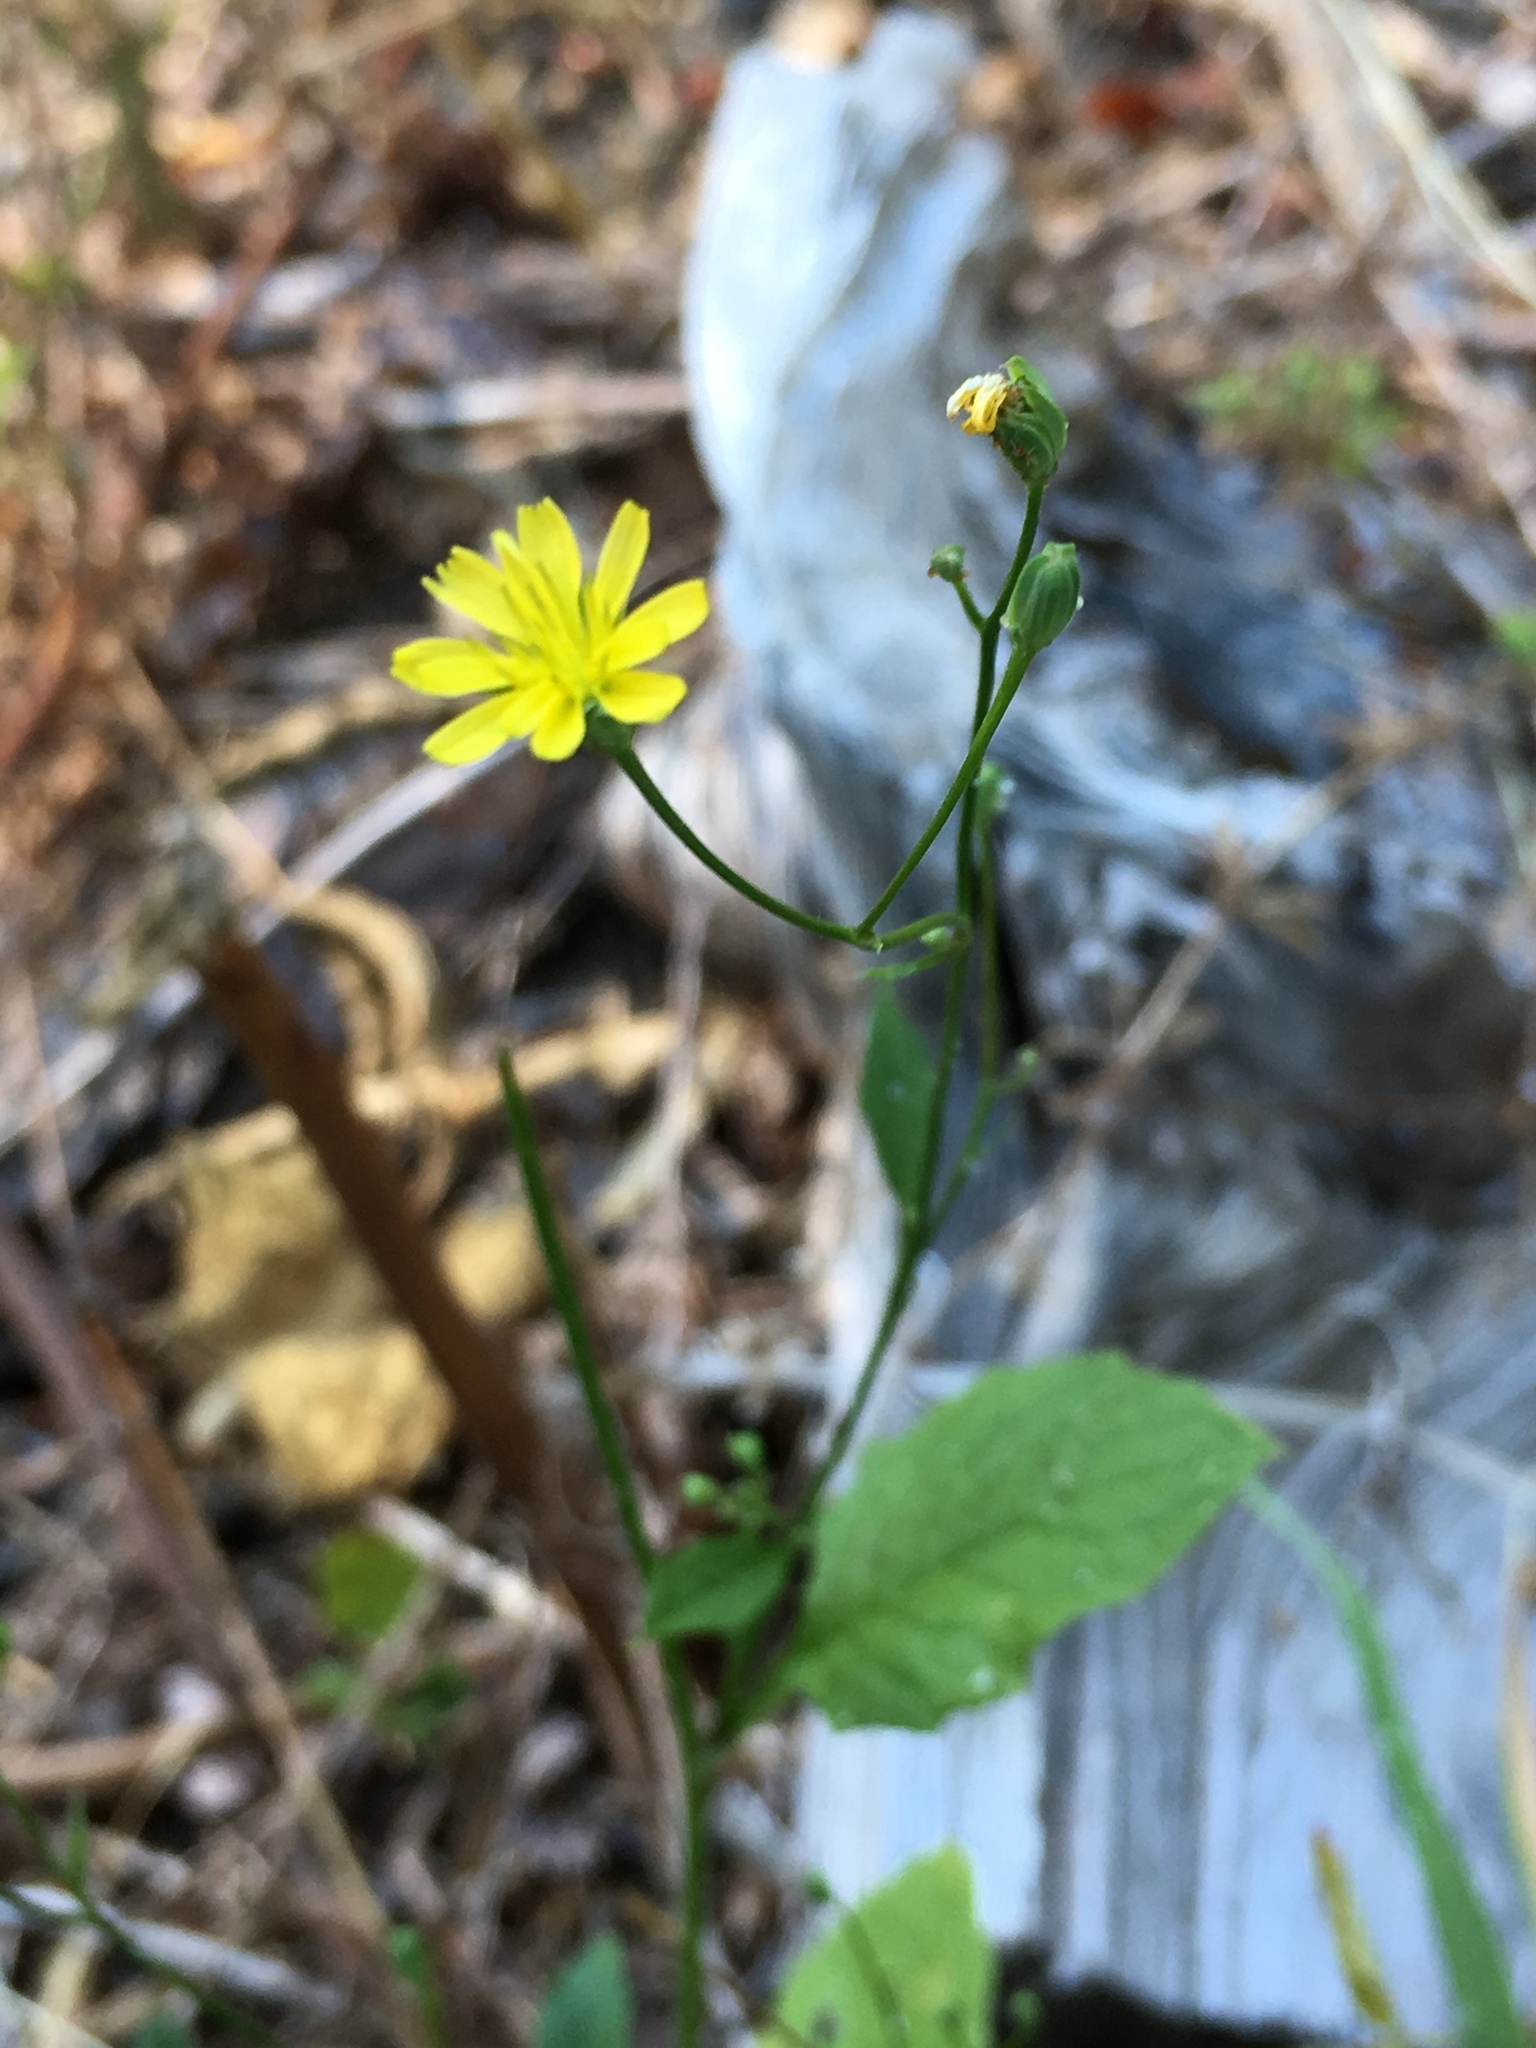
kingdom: Plantae
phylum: Tracheophyta
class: Magnoliopsida
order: Asterales
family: Asteraceae
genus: Lapsana
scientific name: Lapsana communis
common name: Nipplewort
